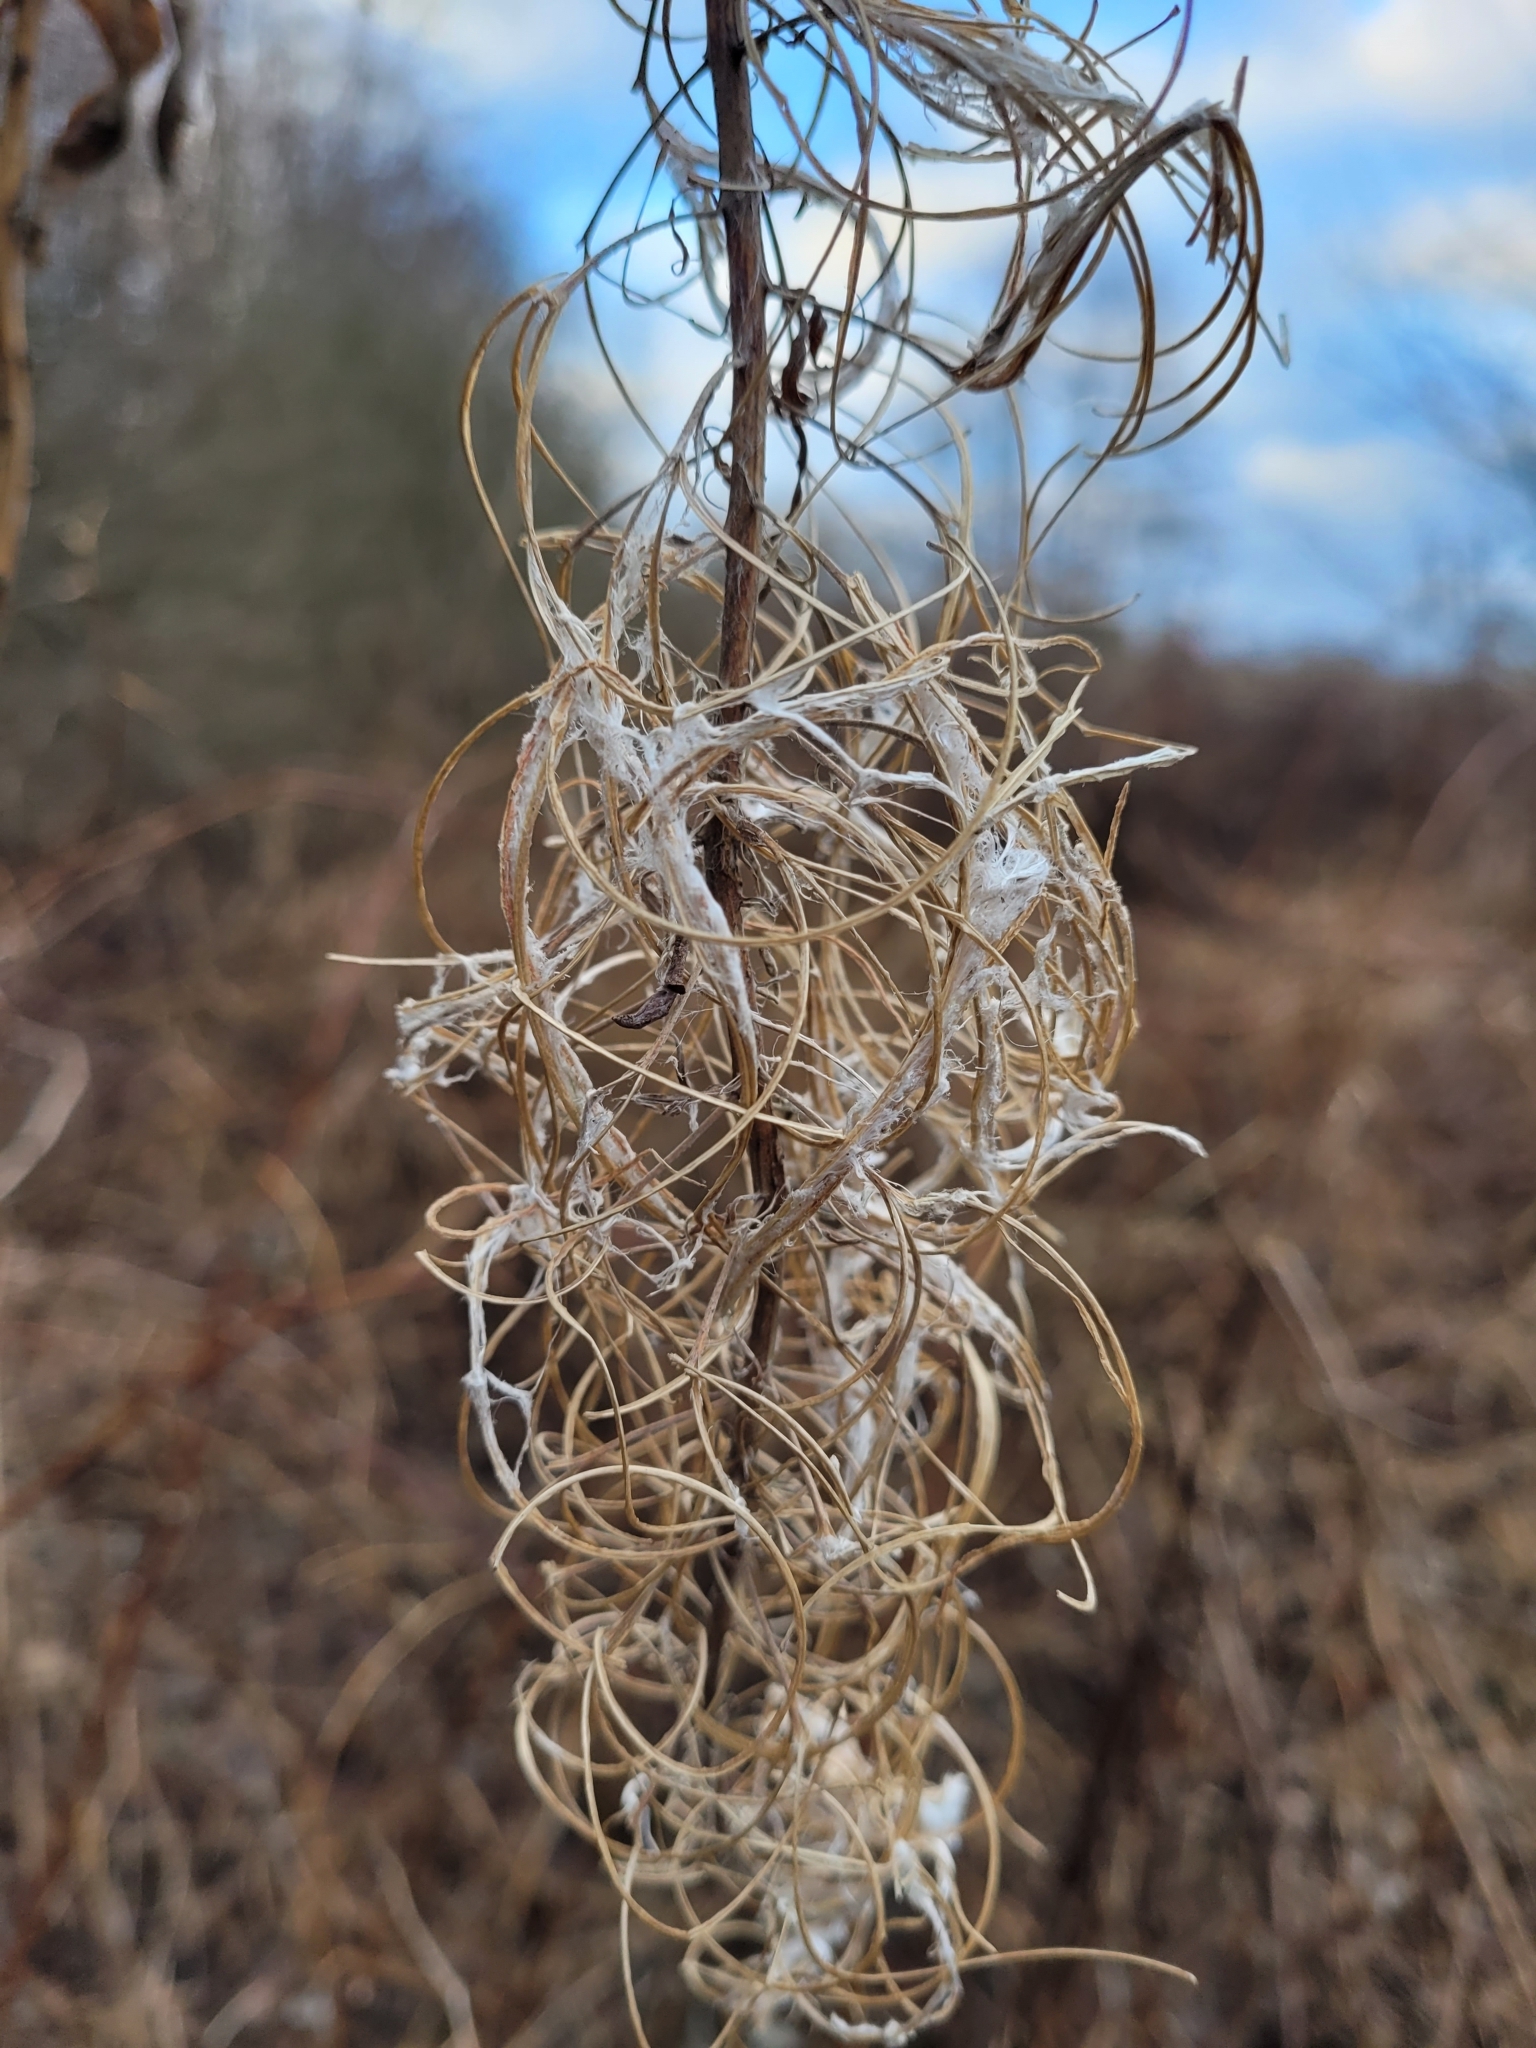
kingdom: Plantae
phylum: Tracheophyta
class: Magnoliopsida
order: Myrtales
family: Onagraceae
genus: Chamaenerion
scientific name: Chamaenerion angustifolium
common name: Fireweed
